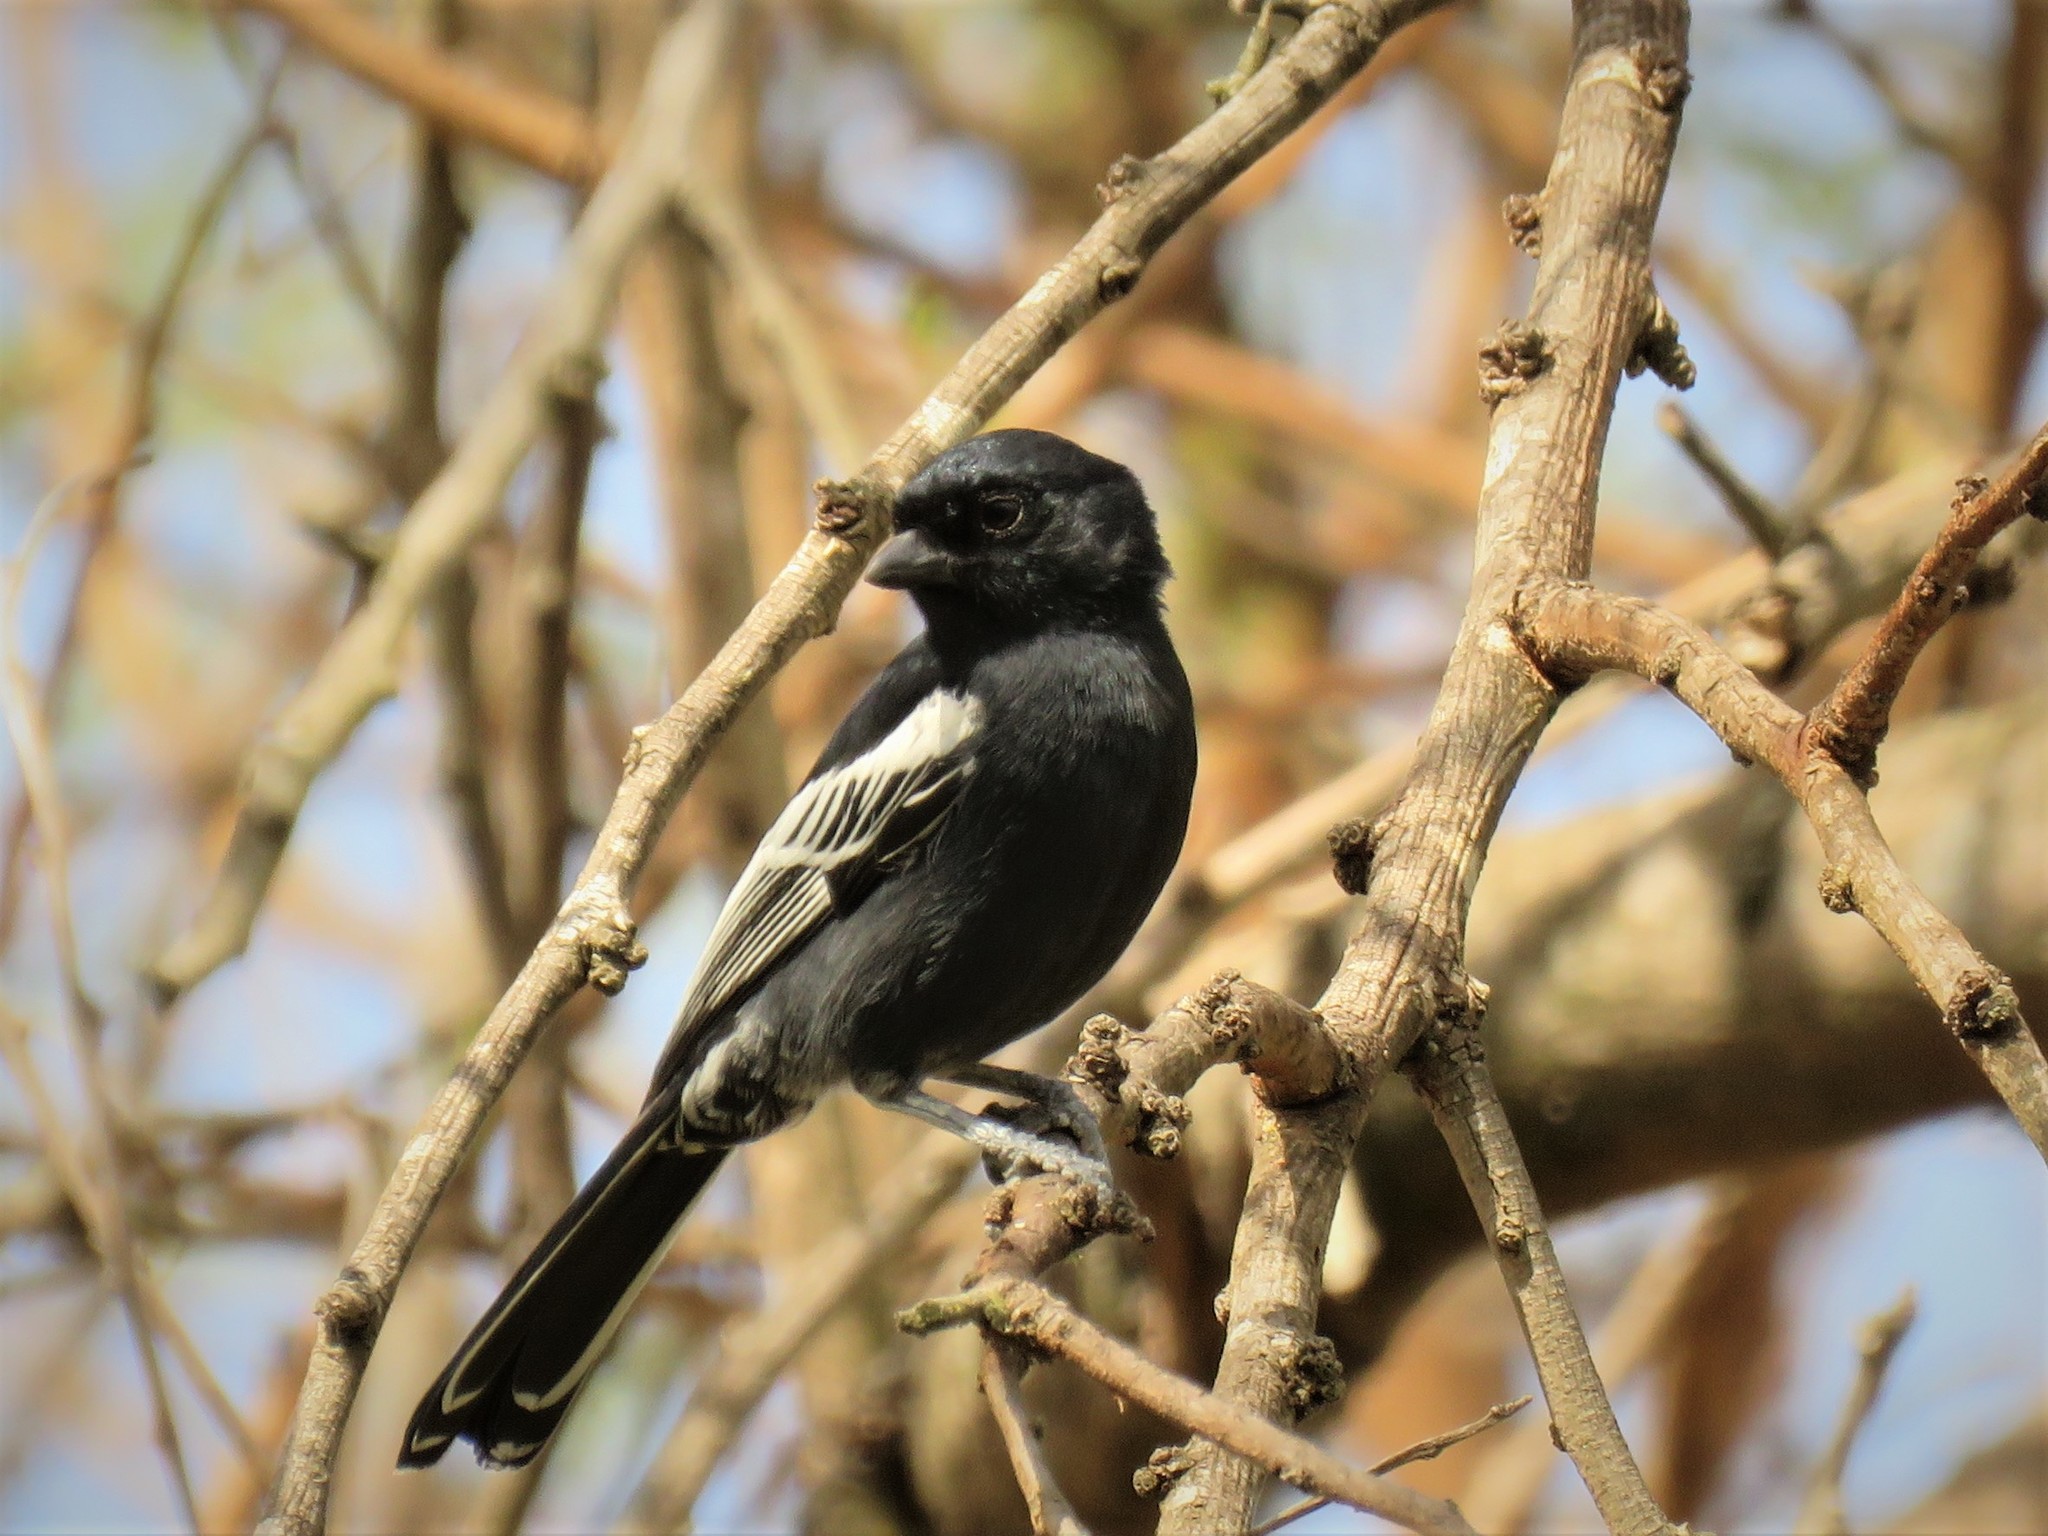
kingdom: Animalia
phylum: Chordata
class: Aves
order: Passeriformes
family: Paridae
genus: Parus
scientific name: Parus niger
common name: Southern black tit
